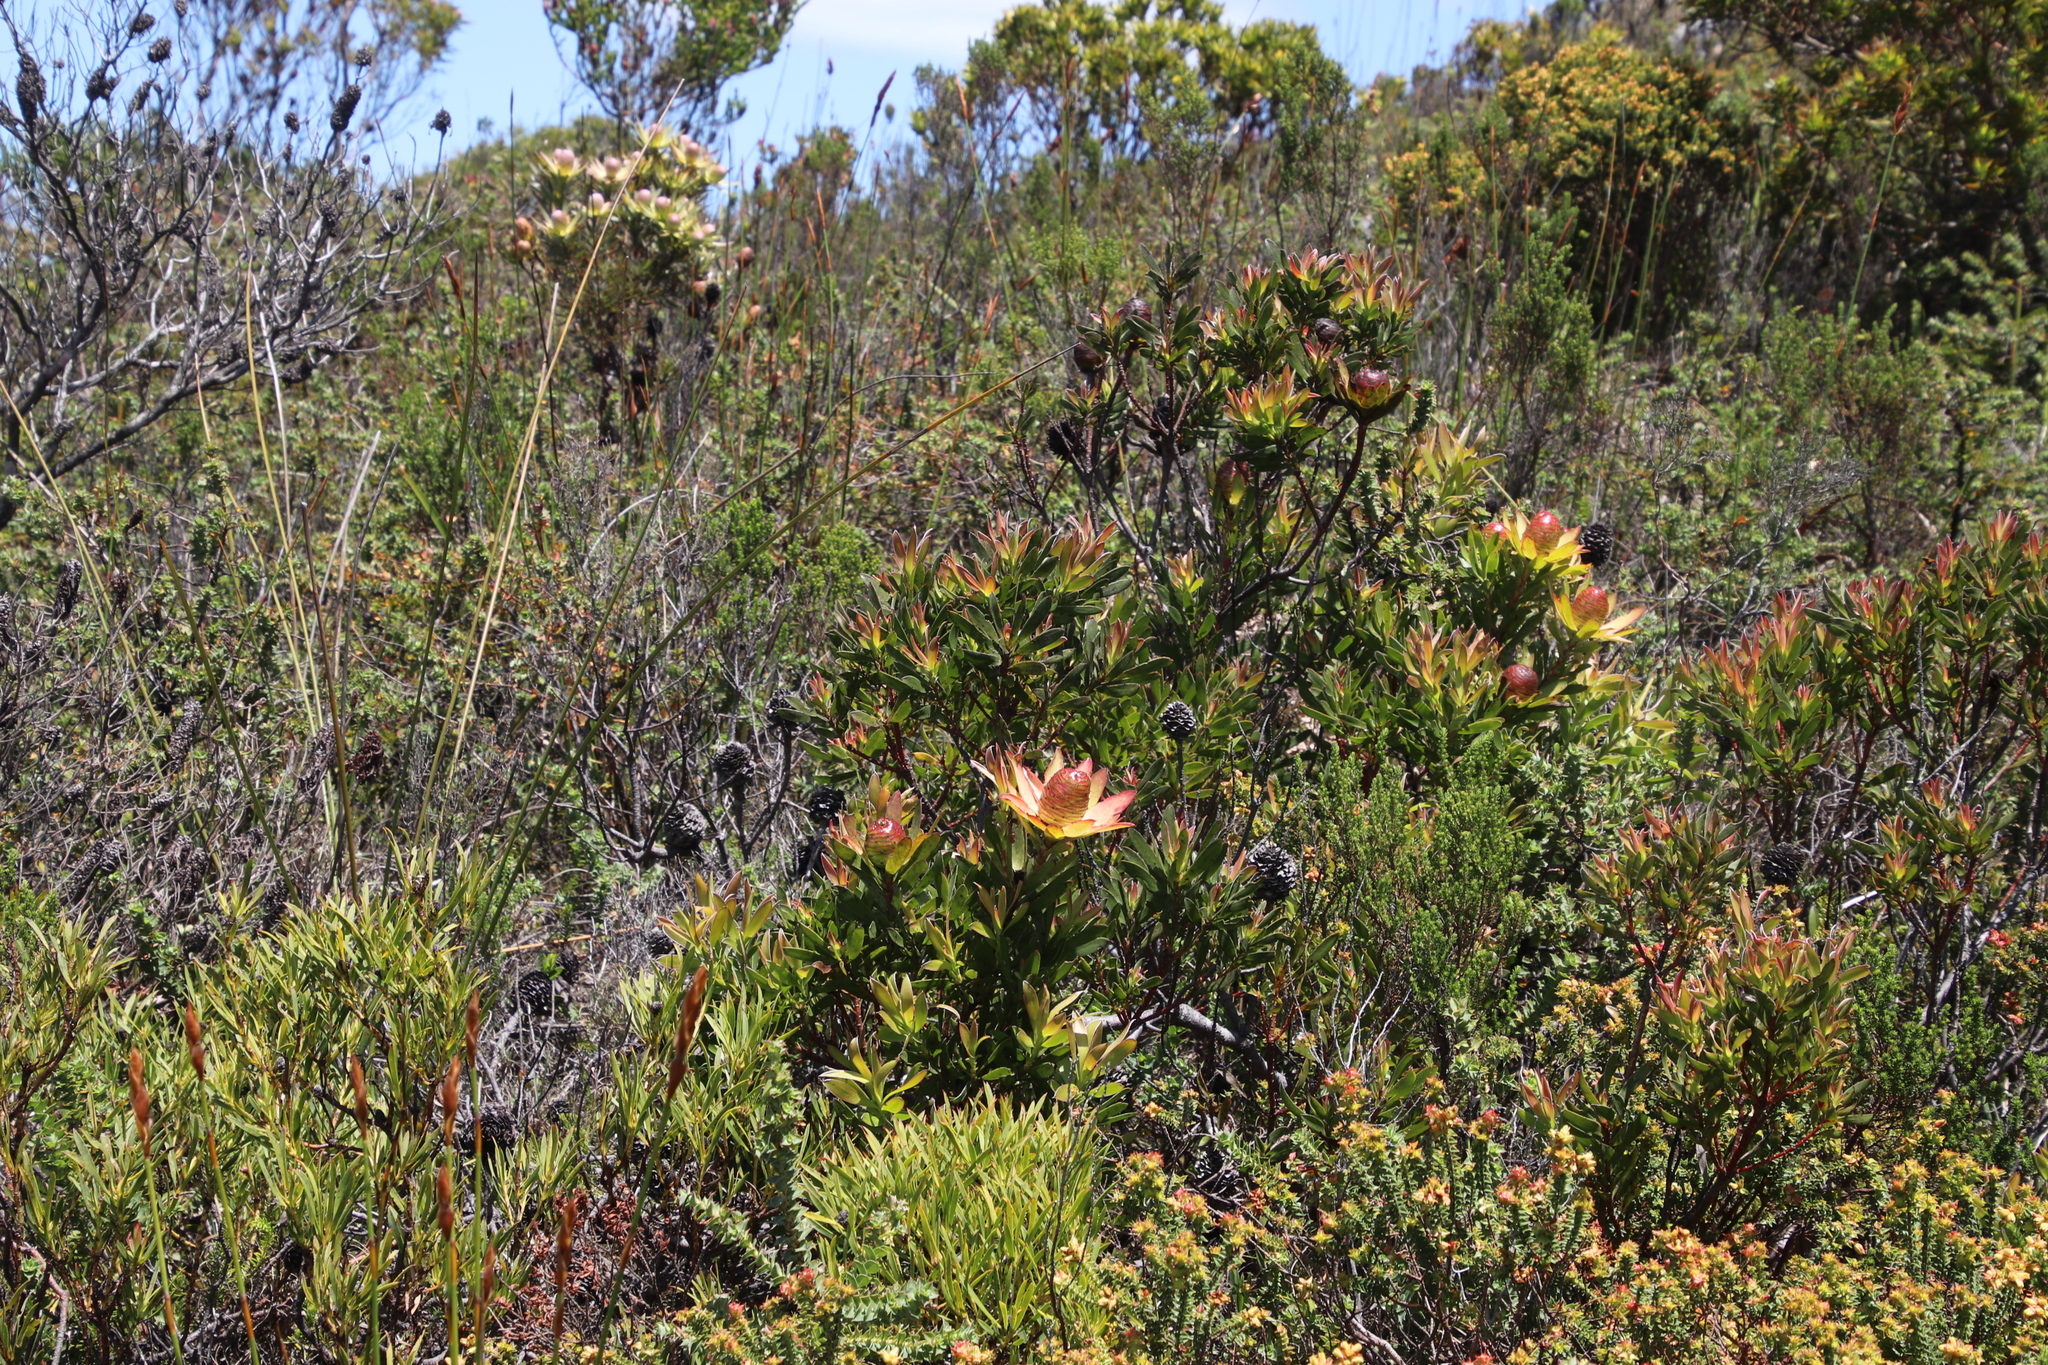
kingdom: Plantae
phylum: Tracheophyta
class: Magnoliopsida
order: Proteales
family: Proteaceae
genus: Leucadendron
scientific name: Leucadendron spissifolium
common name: Spear-leaf conebush
